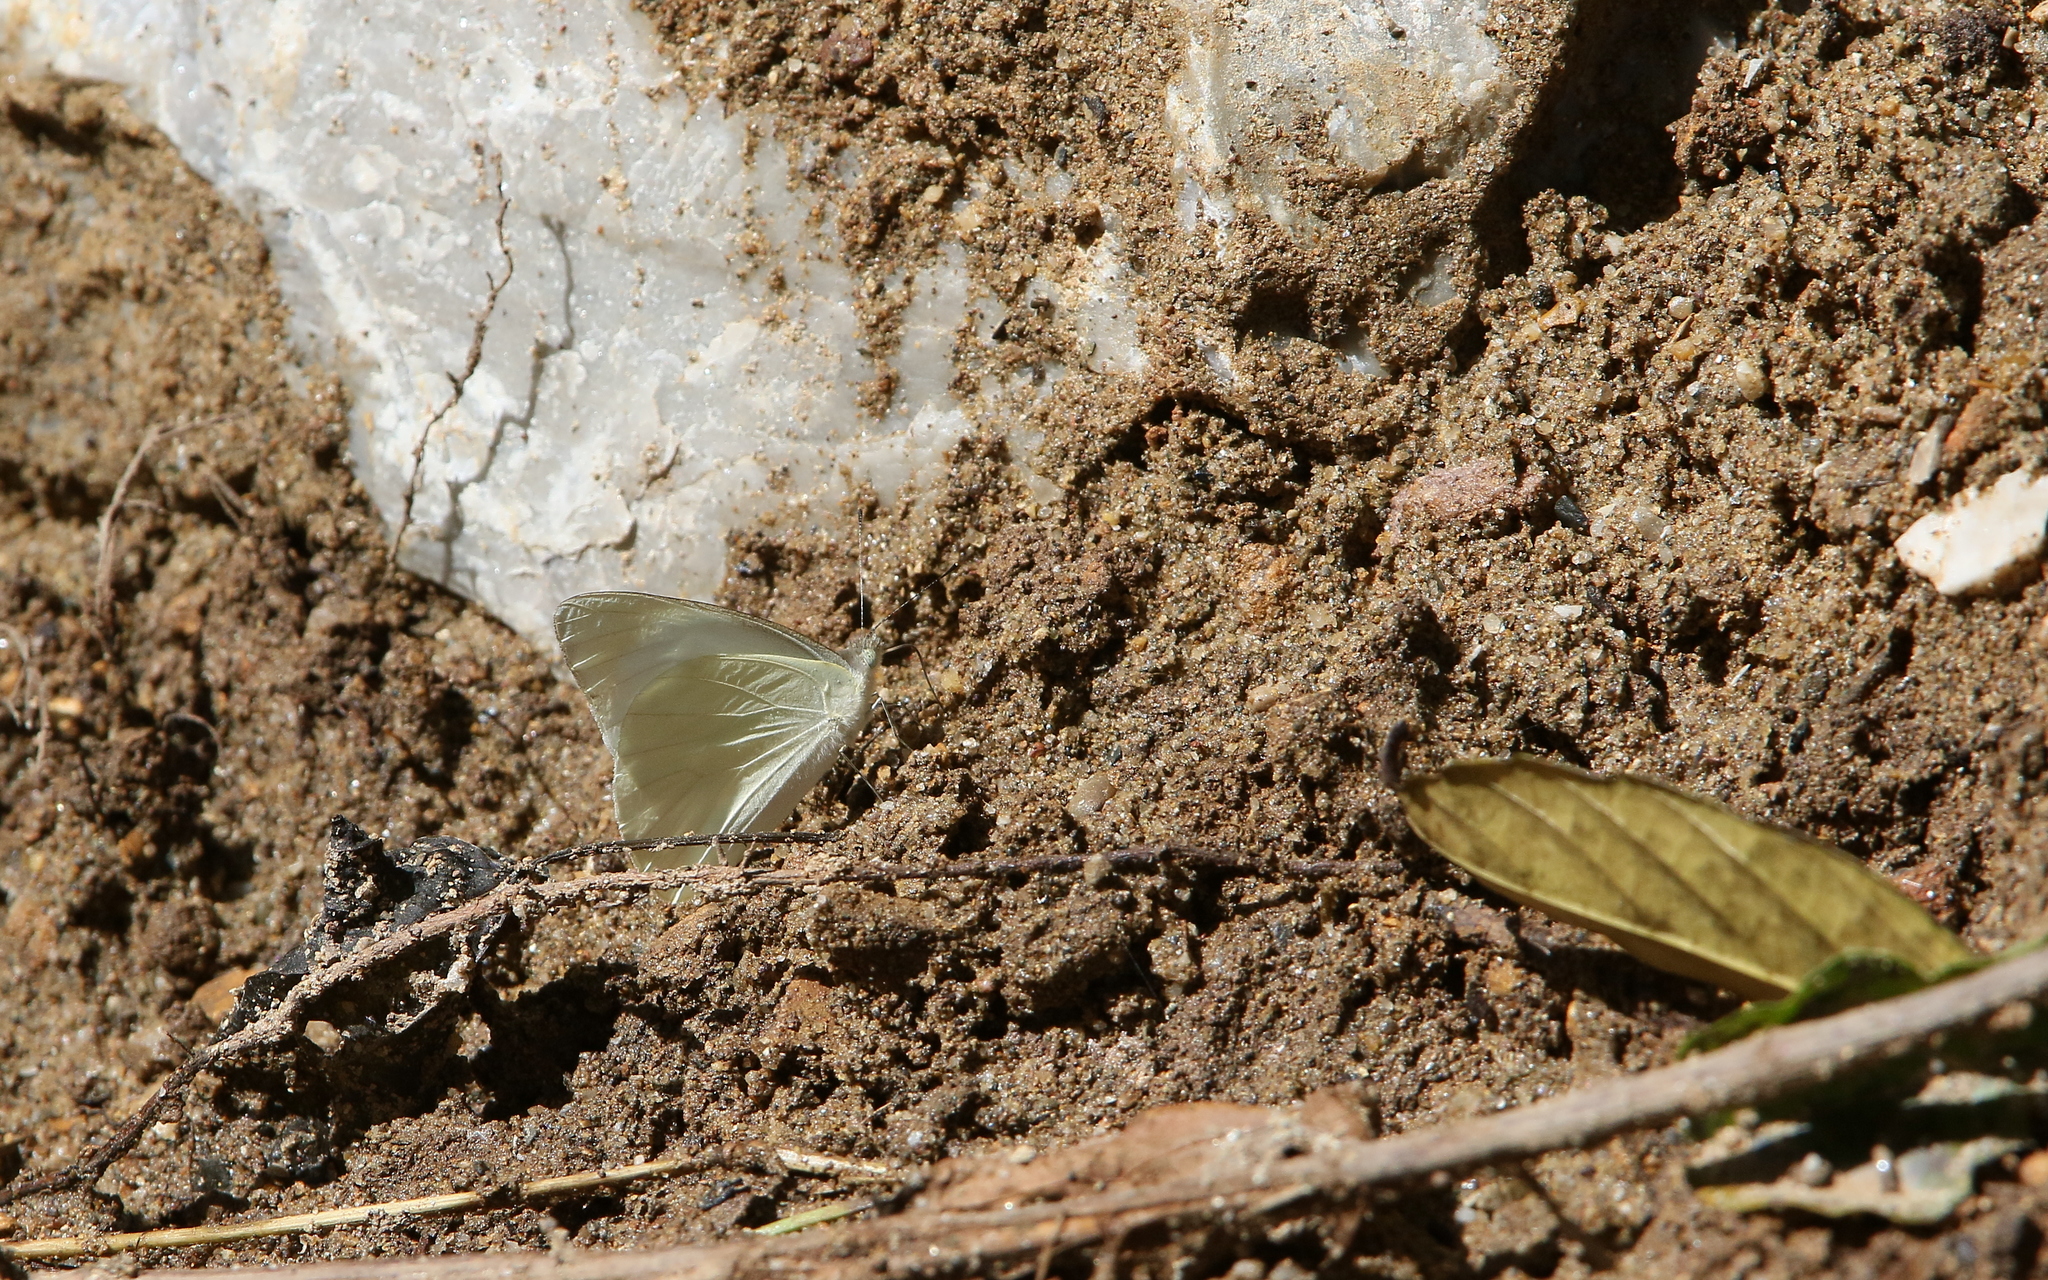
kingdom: Animalia
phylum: Arthropoda
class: Insecta
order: Lepidoptera
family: Pieridae
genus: Appias
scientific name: Appias albina
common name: Common albatross
